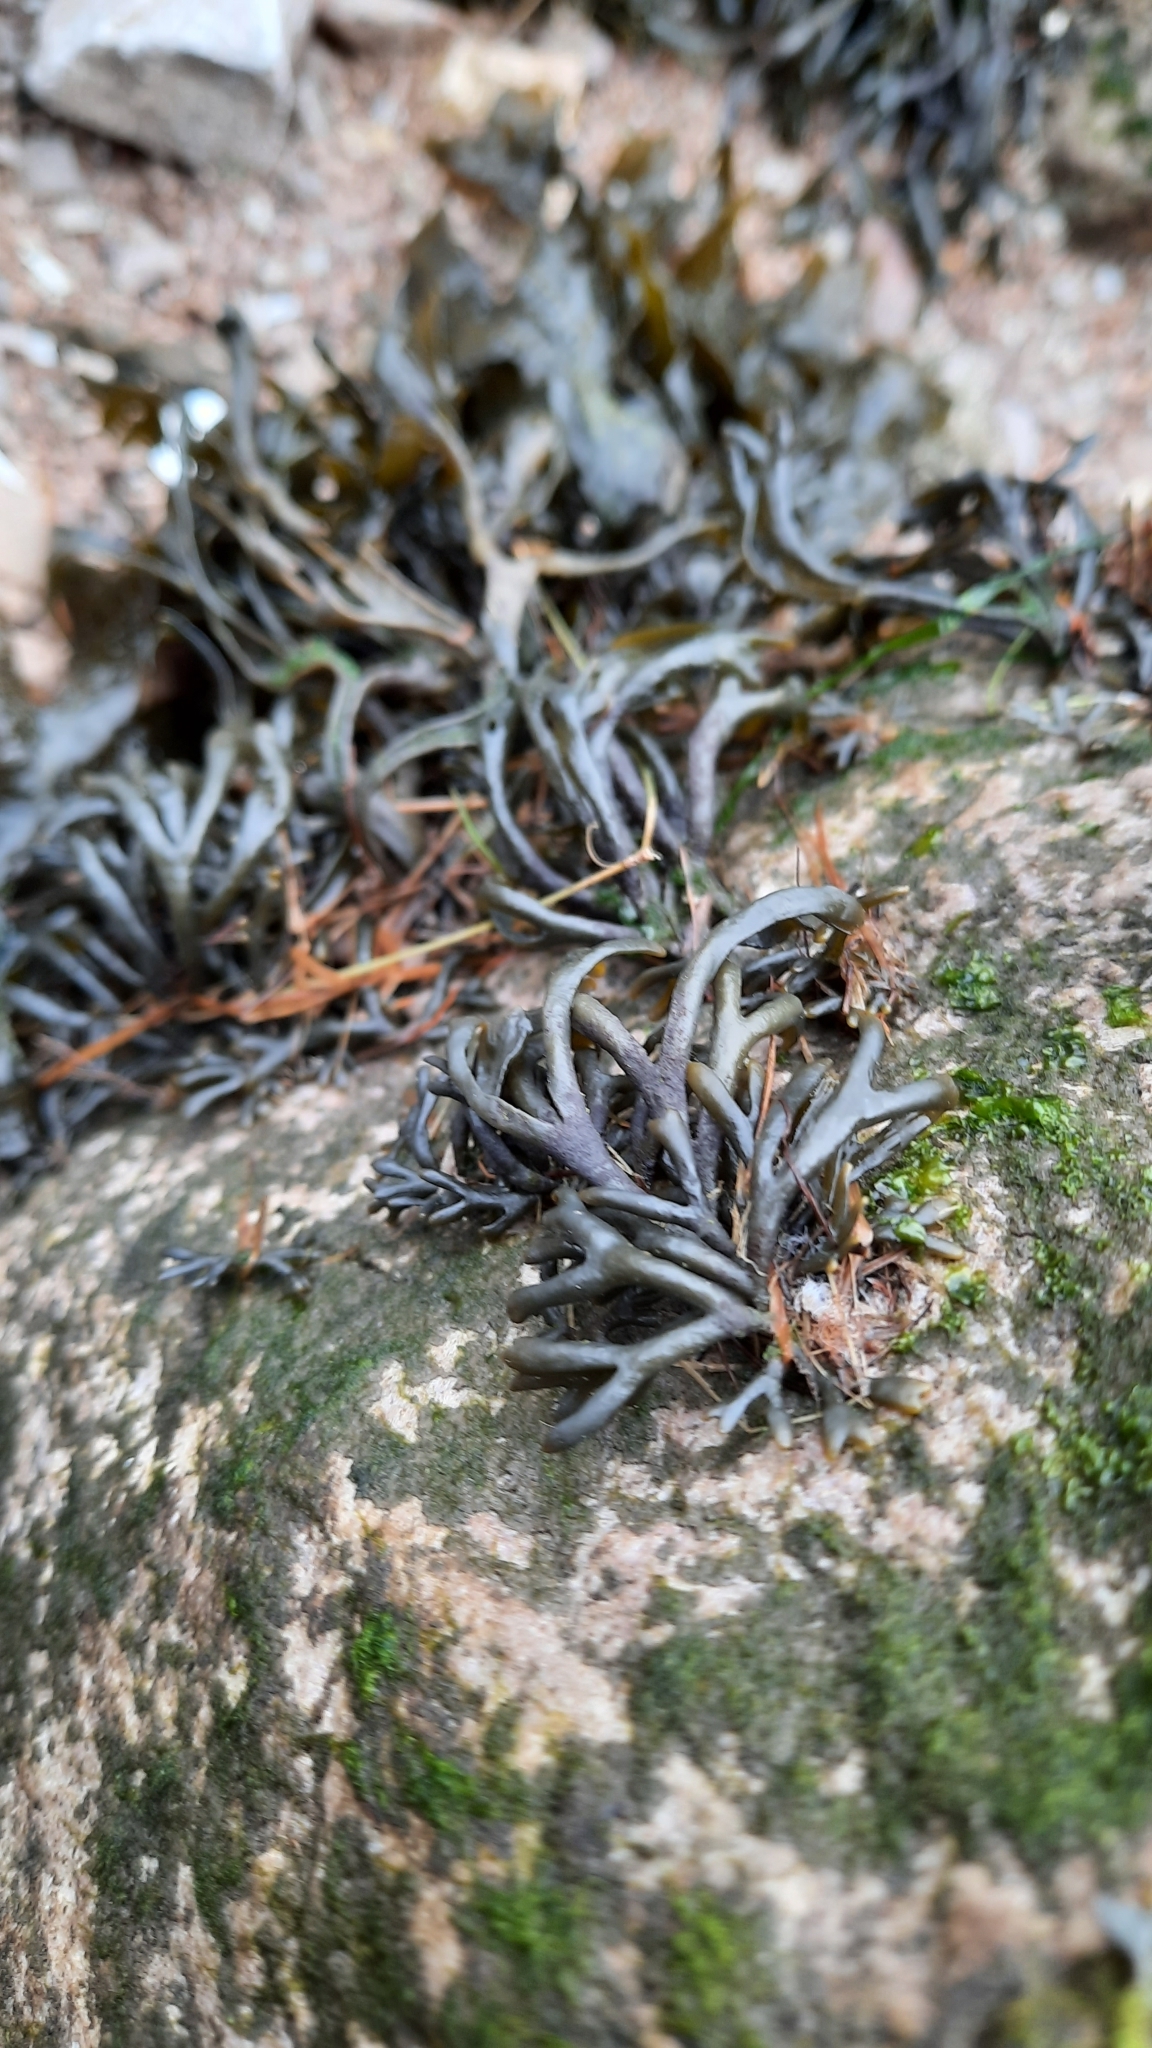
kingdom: Chromista
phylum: Ochrophyta
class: Phaeophyceae
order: Fucales
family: Fucaceae
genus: Pelvetia
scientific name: Pelvetia canaliculata
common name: Channelled wrack
